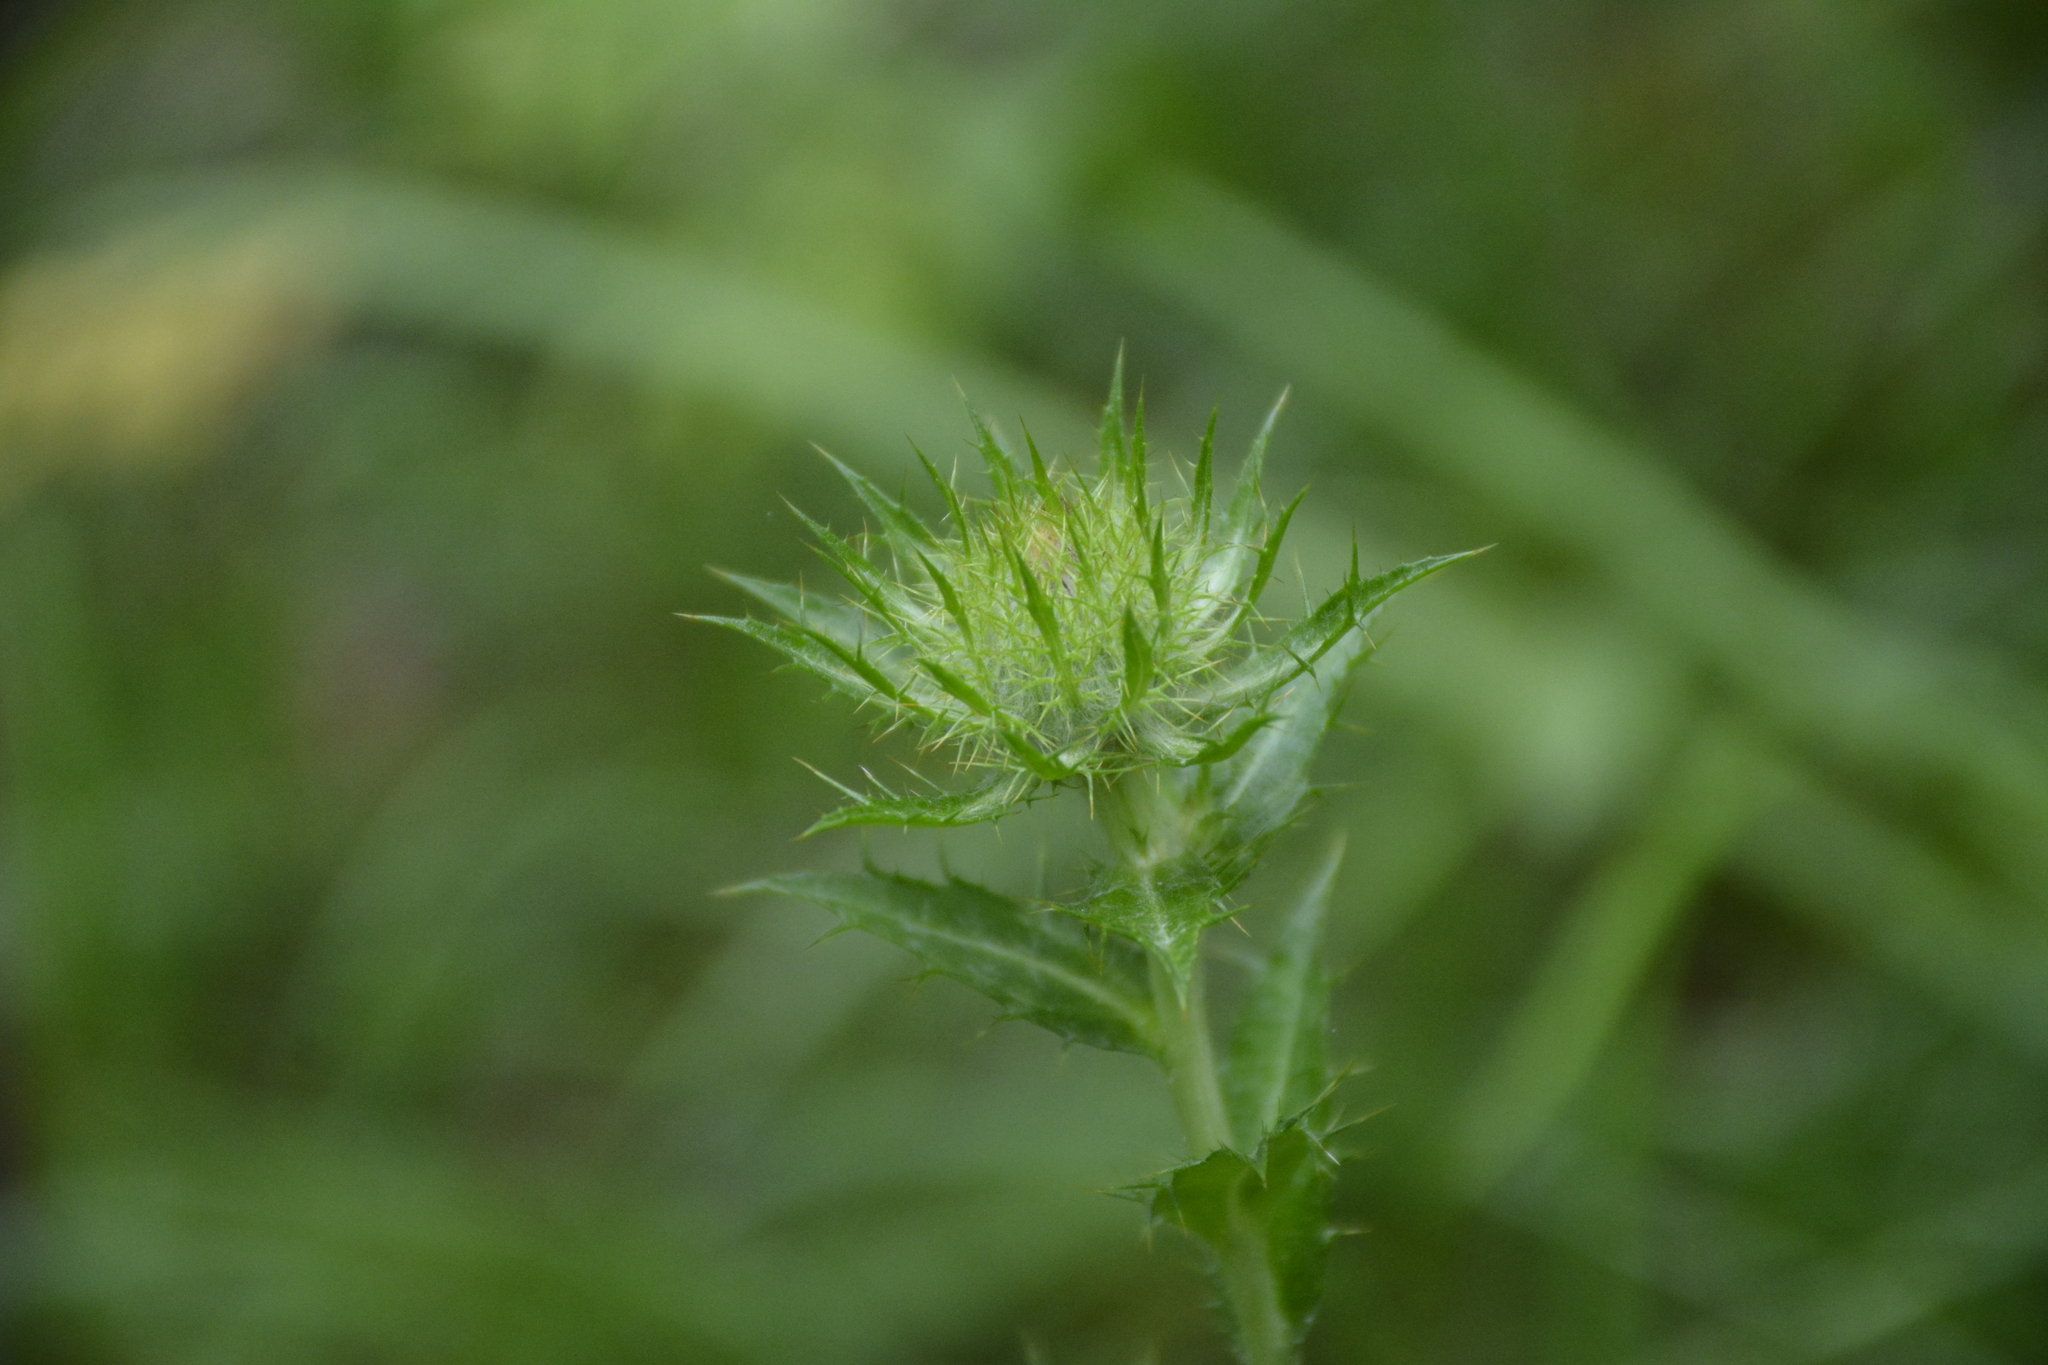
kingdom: Plantae
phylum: Tracheophyta
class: Magnoliopsida
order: Asterales
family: Asteraceae
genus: Carlina
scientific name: Carlina biebersteinii
